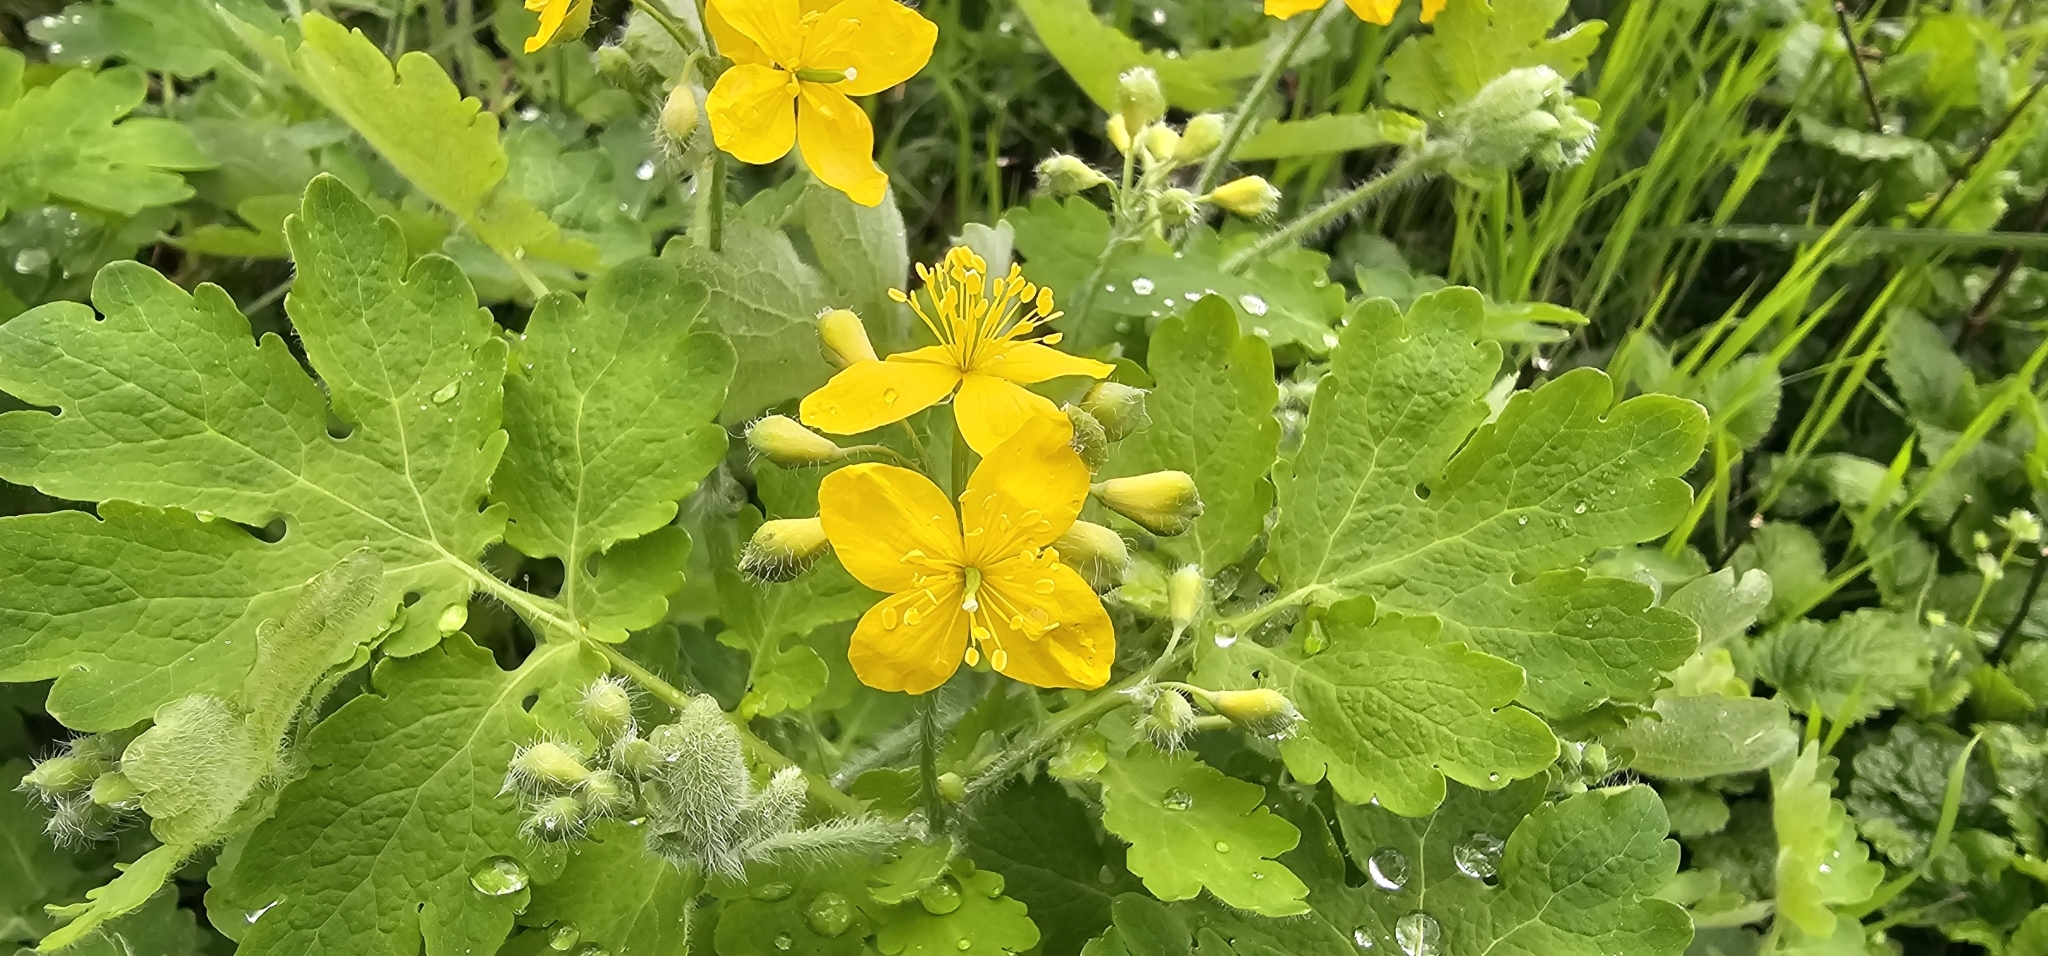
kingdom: Plantae
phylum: Tracheophyta
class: Magnoliopsida
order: Ranunculales
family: Papaveraceae
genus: Chelidonium
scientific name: Chelidonium majus
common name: Greater celandine
